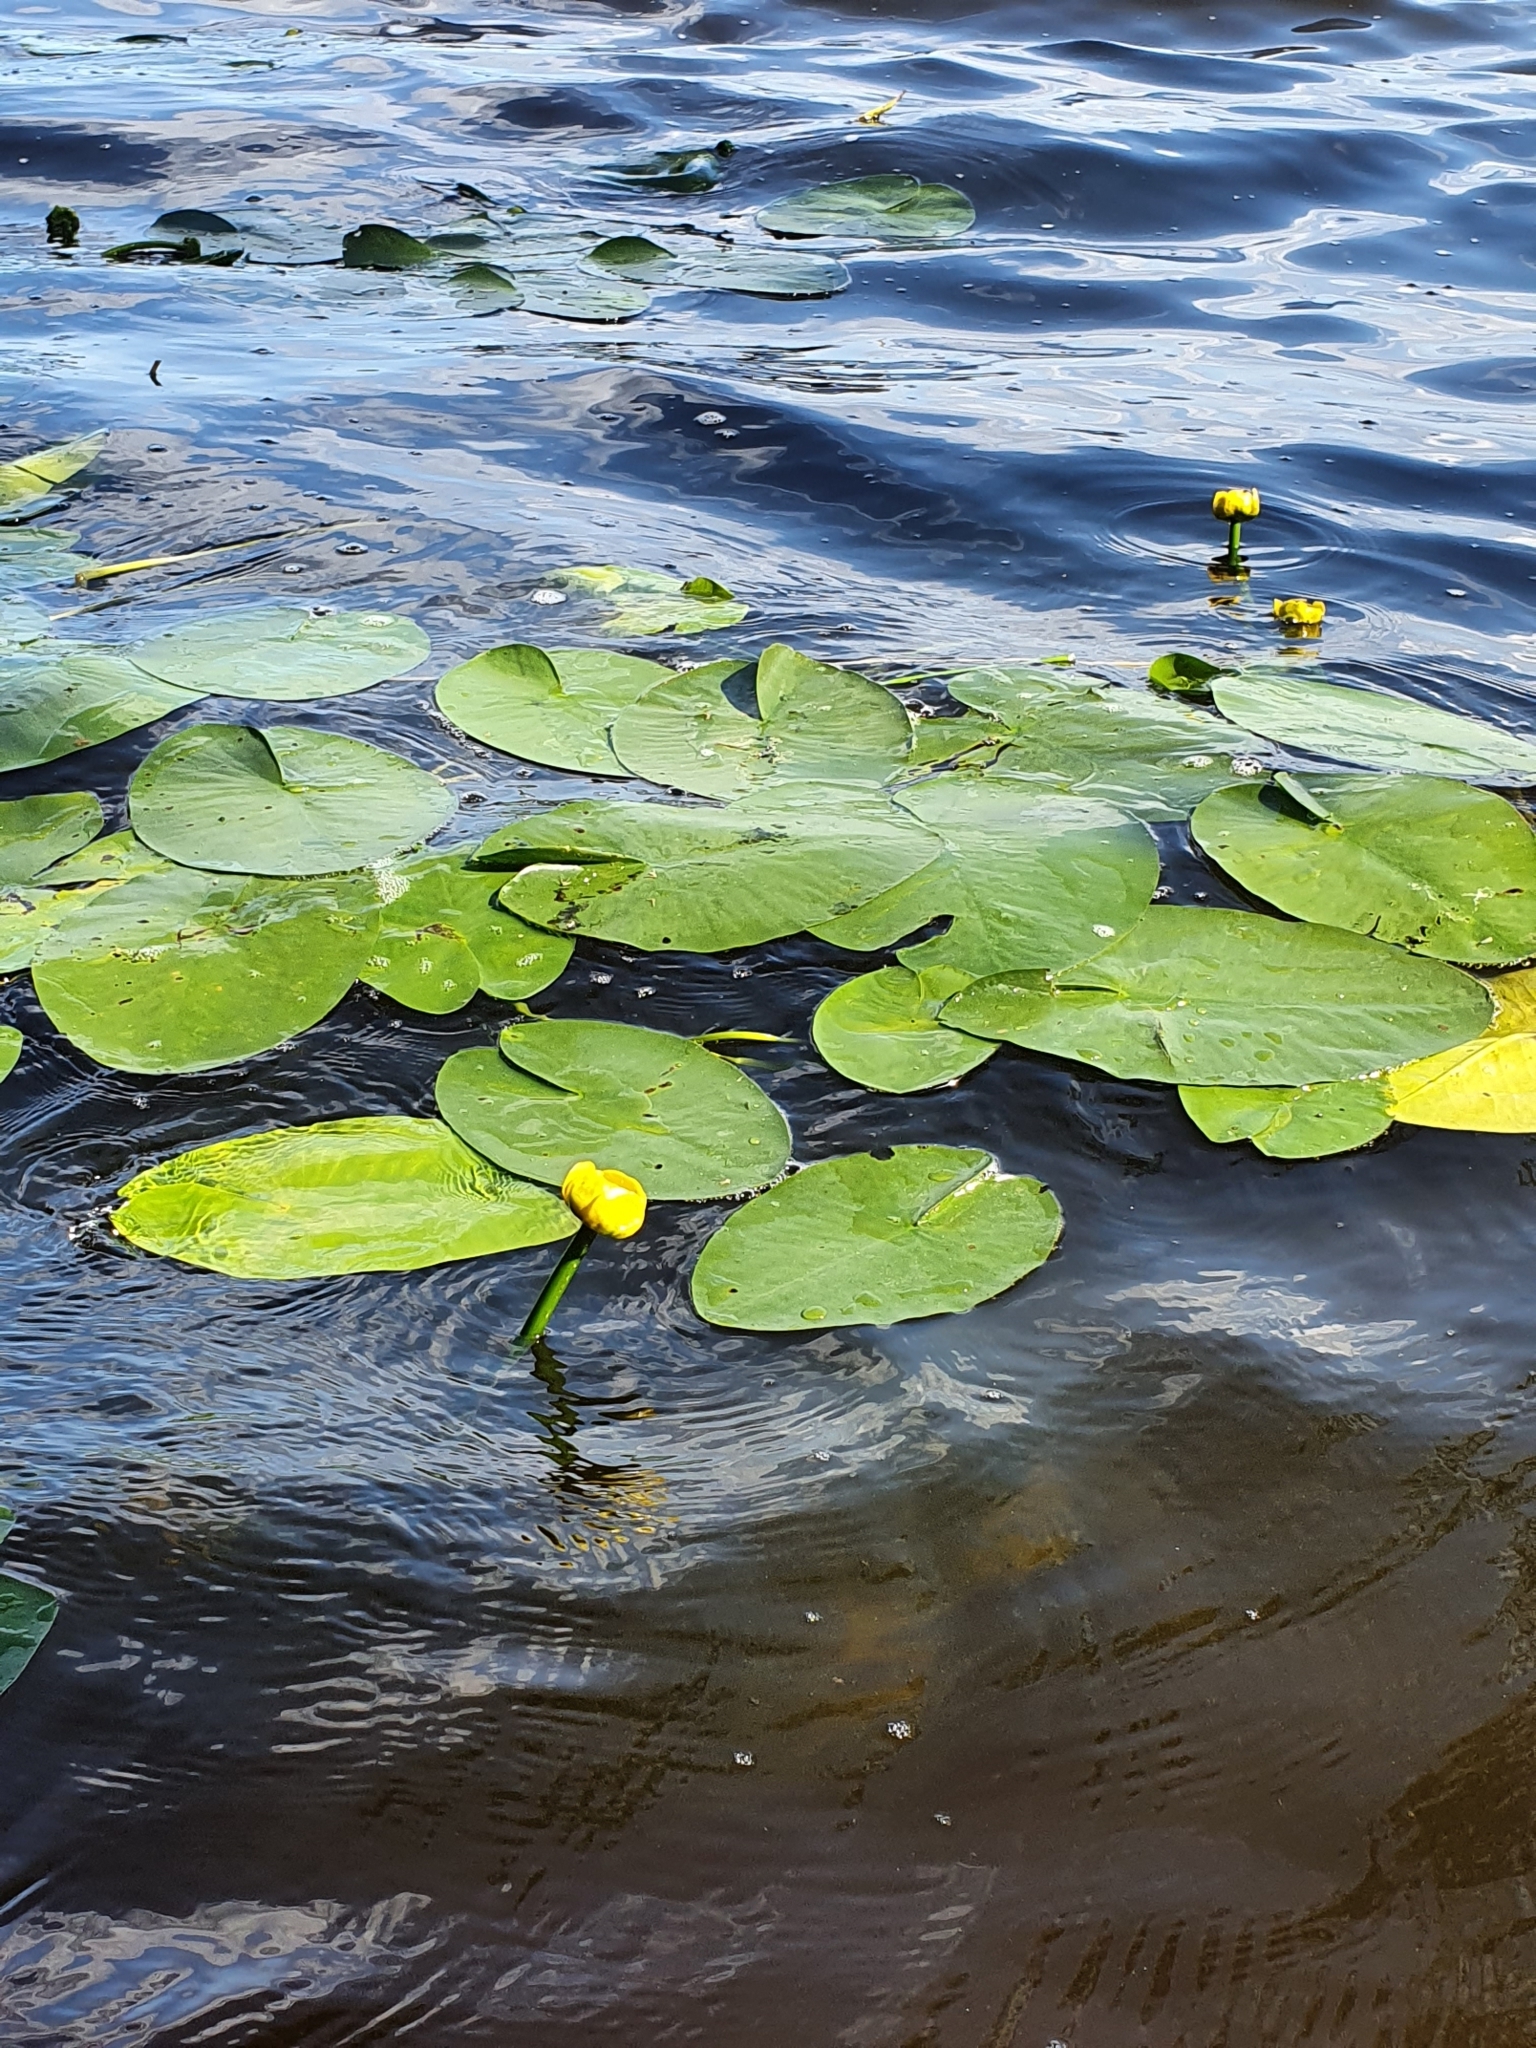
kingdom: Plantae
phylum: Tracheophyta
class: Magnoliopsida
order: Nymphaeales
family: Nymphaeaceae
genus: Nuphar
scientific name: Nuphar lutea
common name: Yellow water-lily
